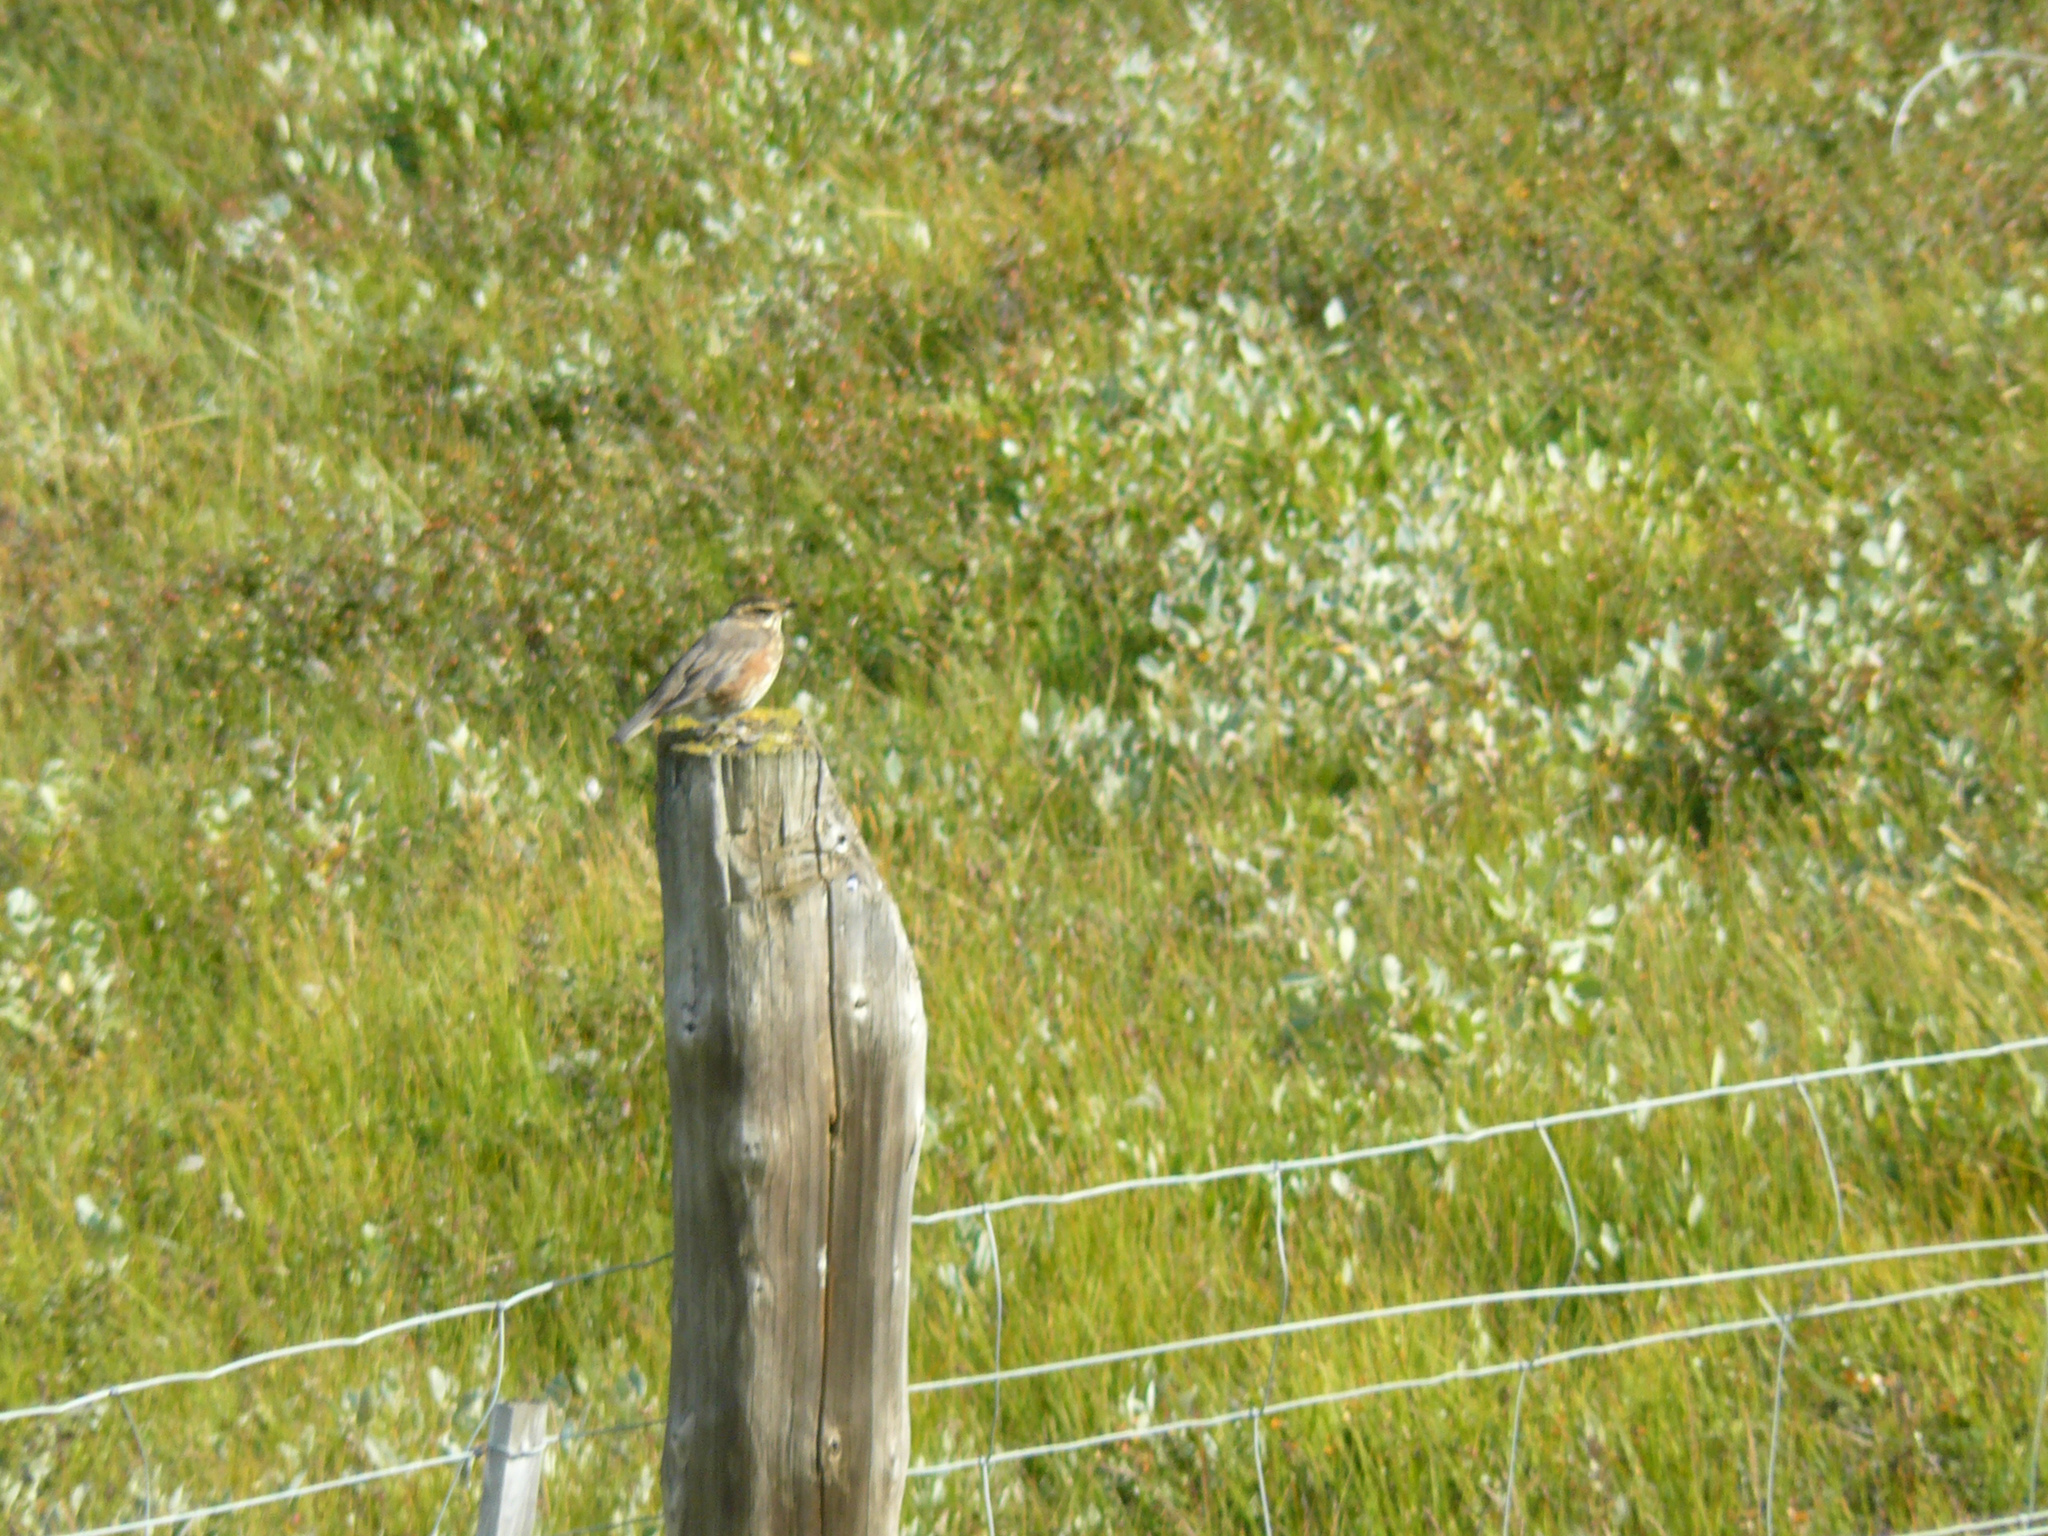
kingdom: Animalia
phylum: Chordata
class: Aves
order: Passeriformes
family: Turdidae
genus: Turdus
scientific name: Turdus iliacus
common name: Redwing
